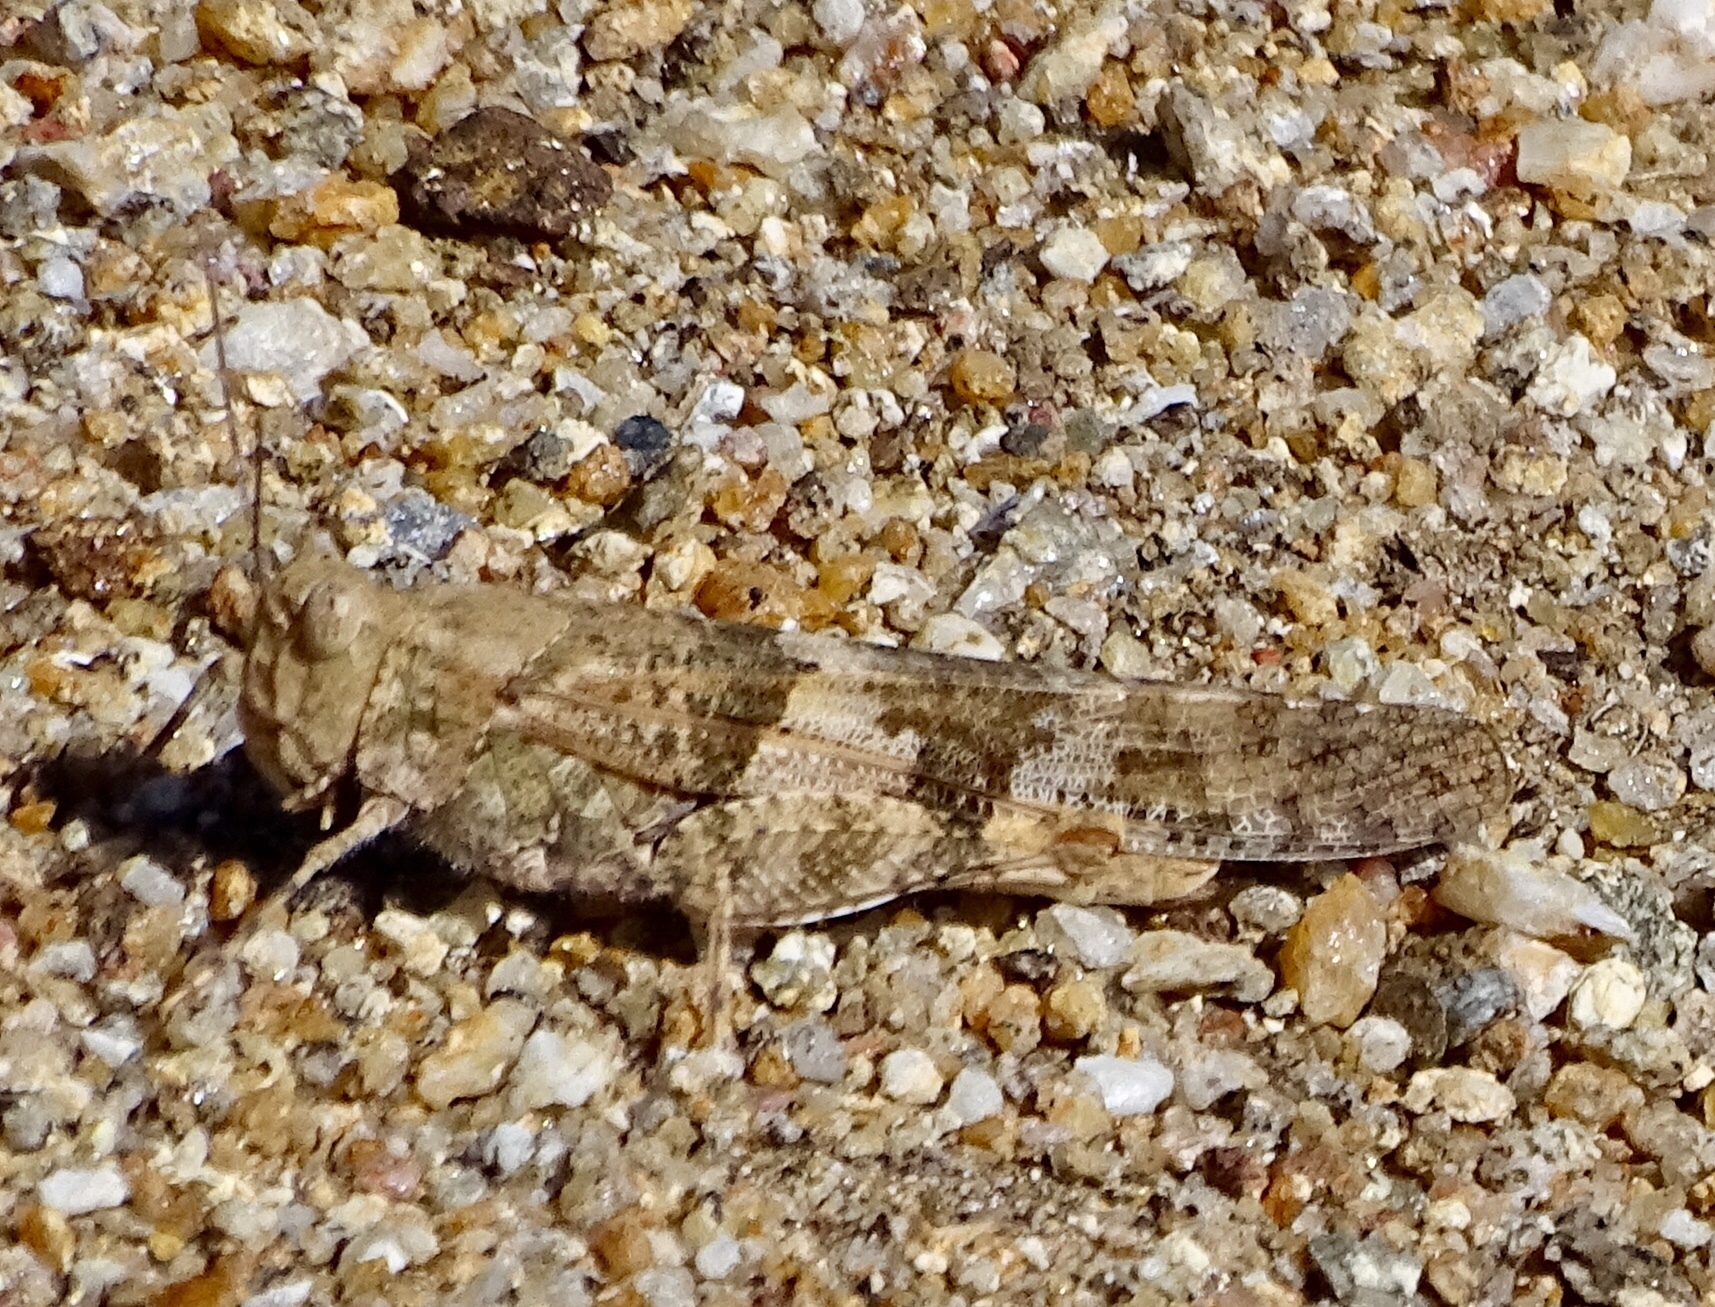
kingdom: Animalia
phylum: Arthropoda
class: Insecta
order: Orthoptera
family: Acrididae
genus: Trimerotropis
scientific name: Trimerotropis pallidipennis
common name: Pallid-winged grasshopper
